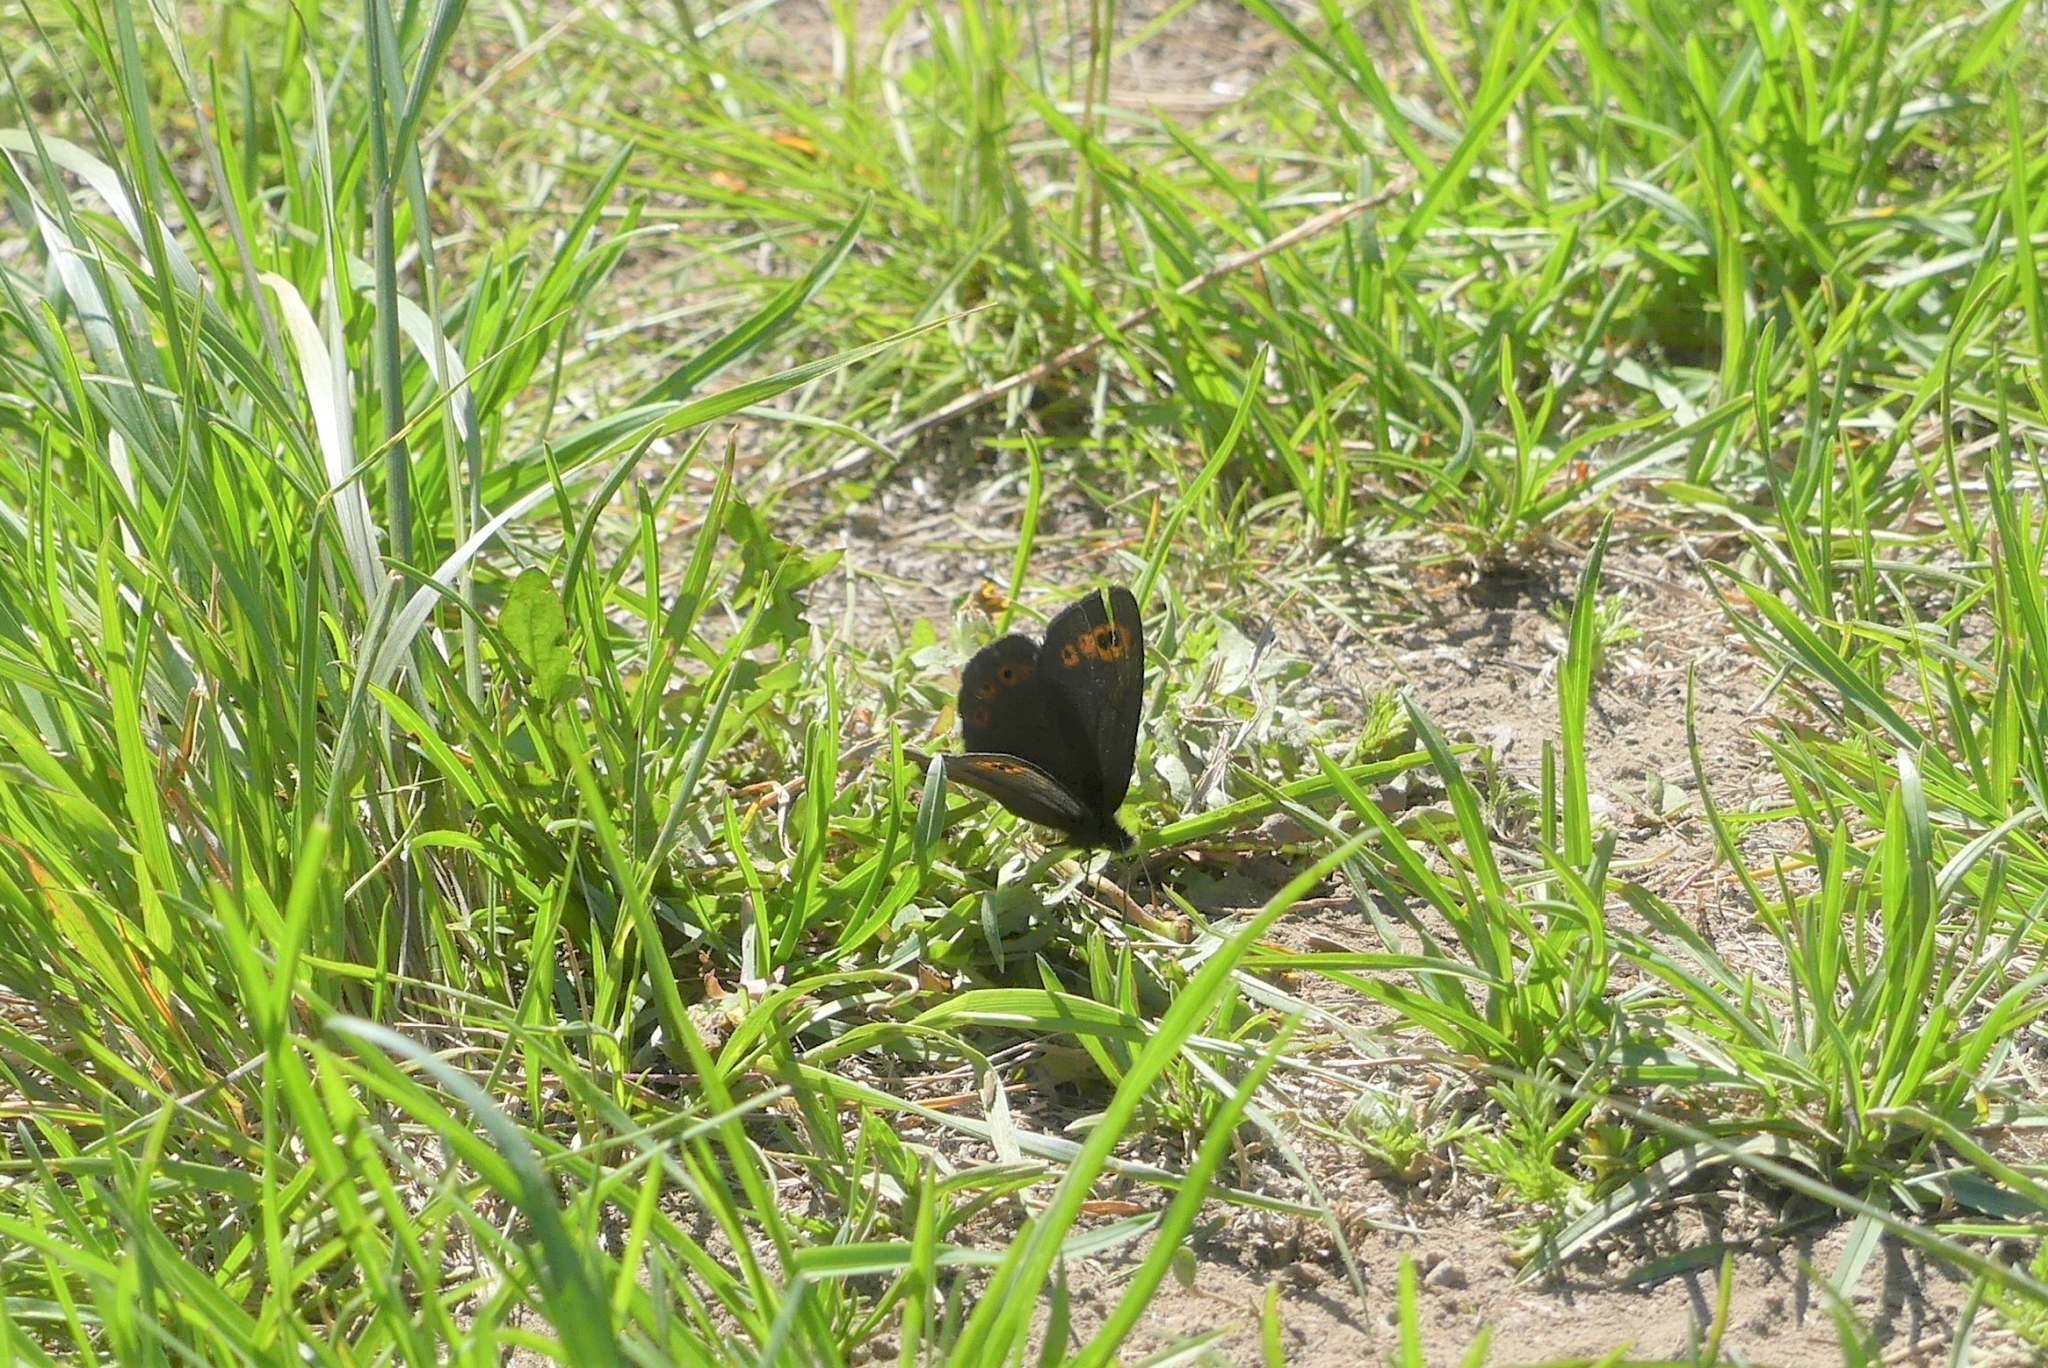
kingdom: Animalia
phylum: Arthropoda
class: Insecta
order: Lepidoptera
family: Nymphalidae
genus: Erebia
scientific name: Erebia epipsodea
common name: Common alpine
